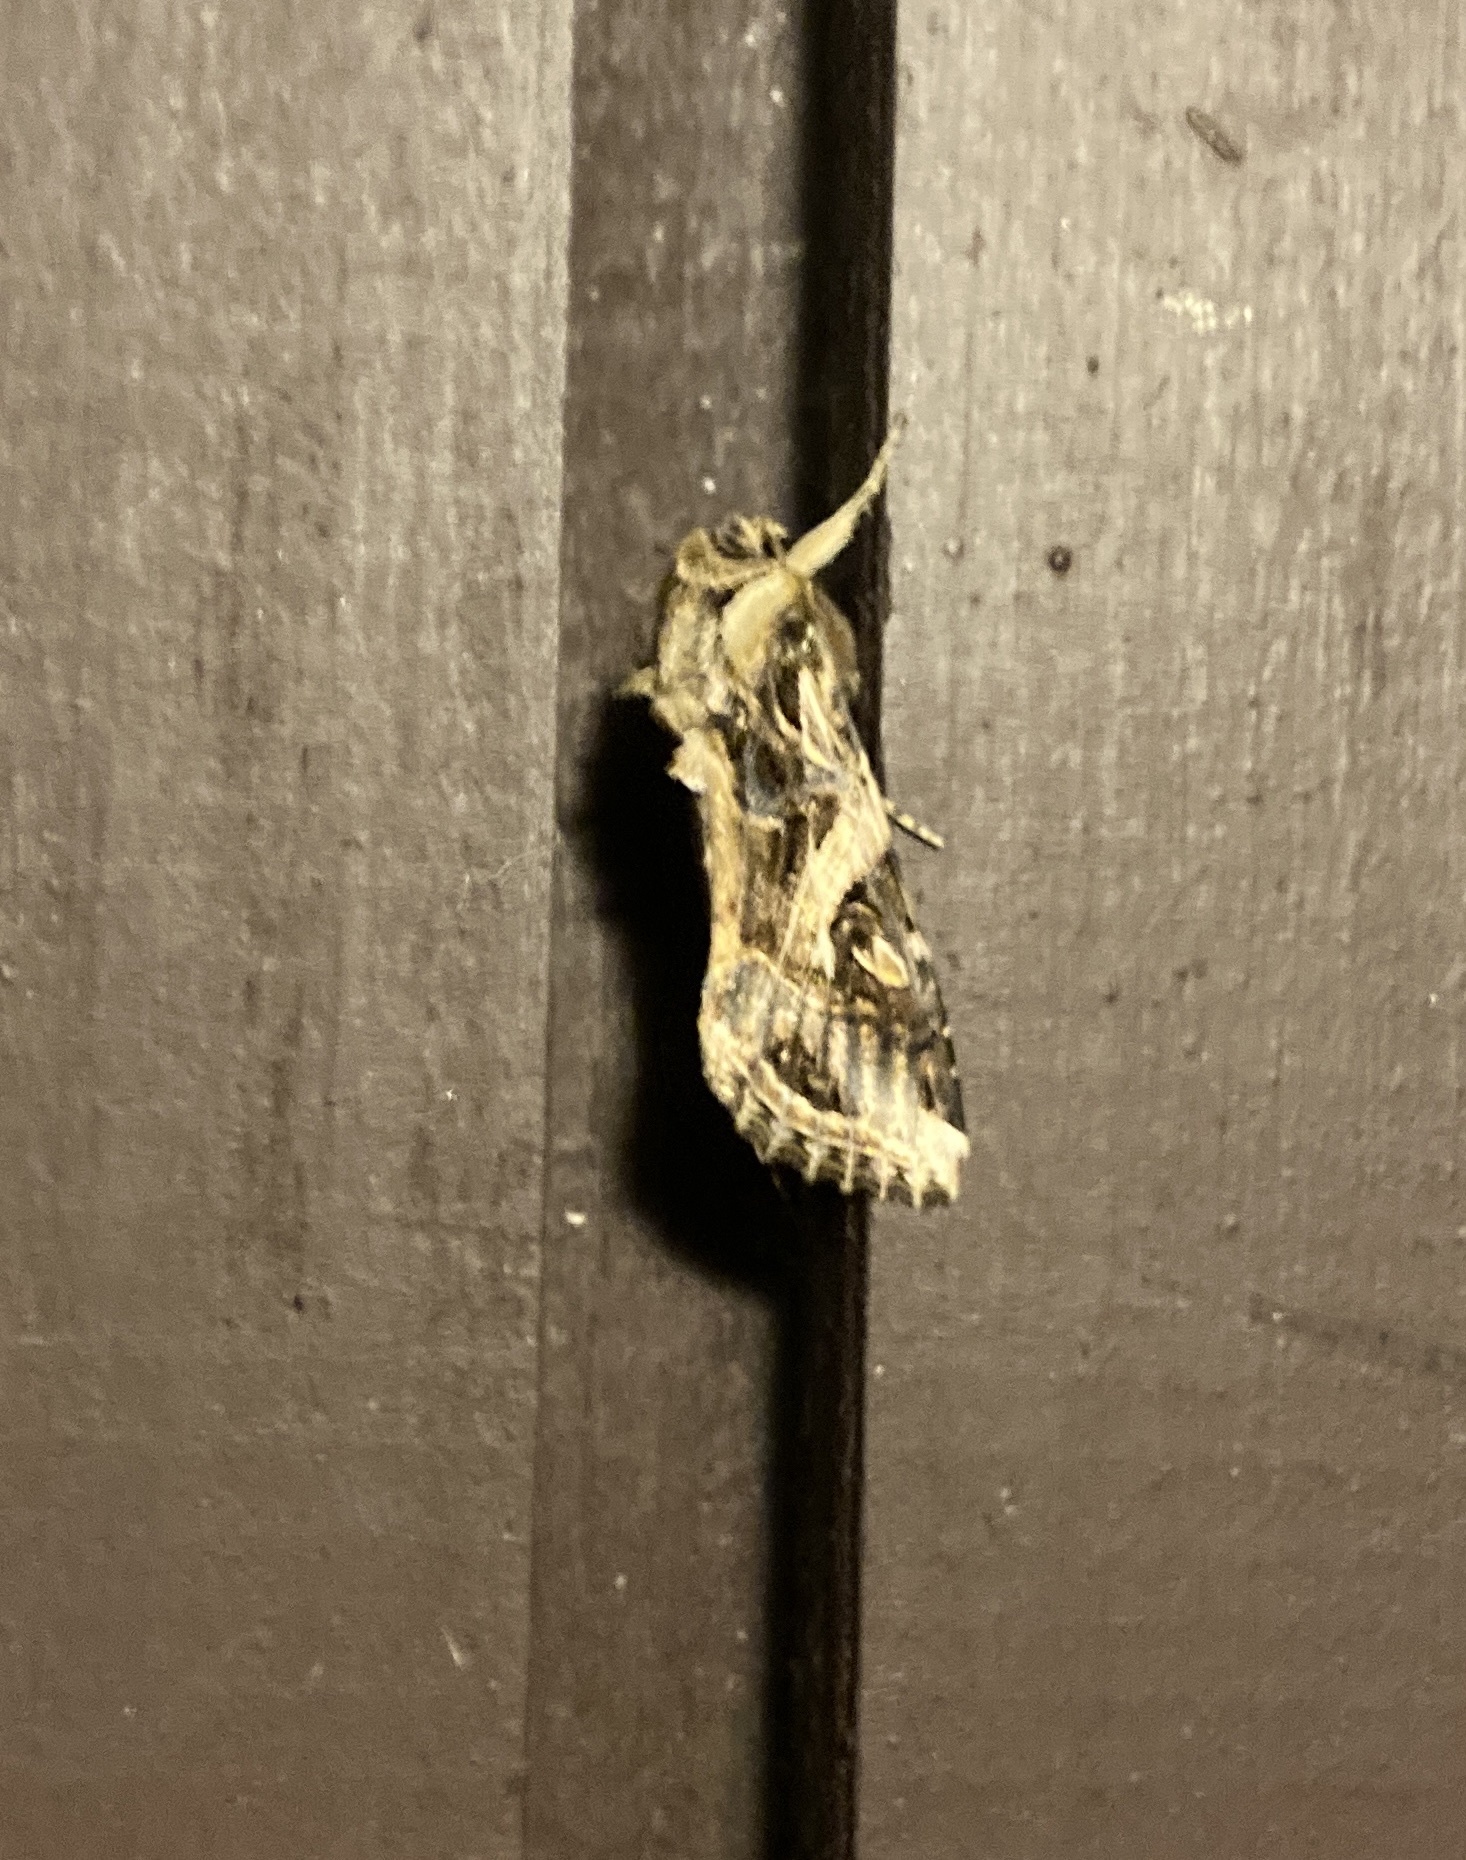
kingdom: Animalia
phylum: Arthropoda
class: Insecta
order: Lepidoptera
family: Noctuidae
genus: Spodoptera
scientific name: Spodoptera litura
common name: Asian cotton leafworm
